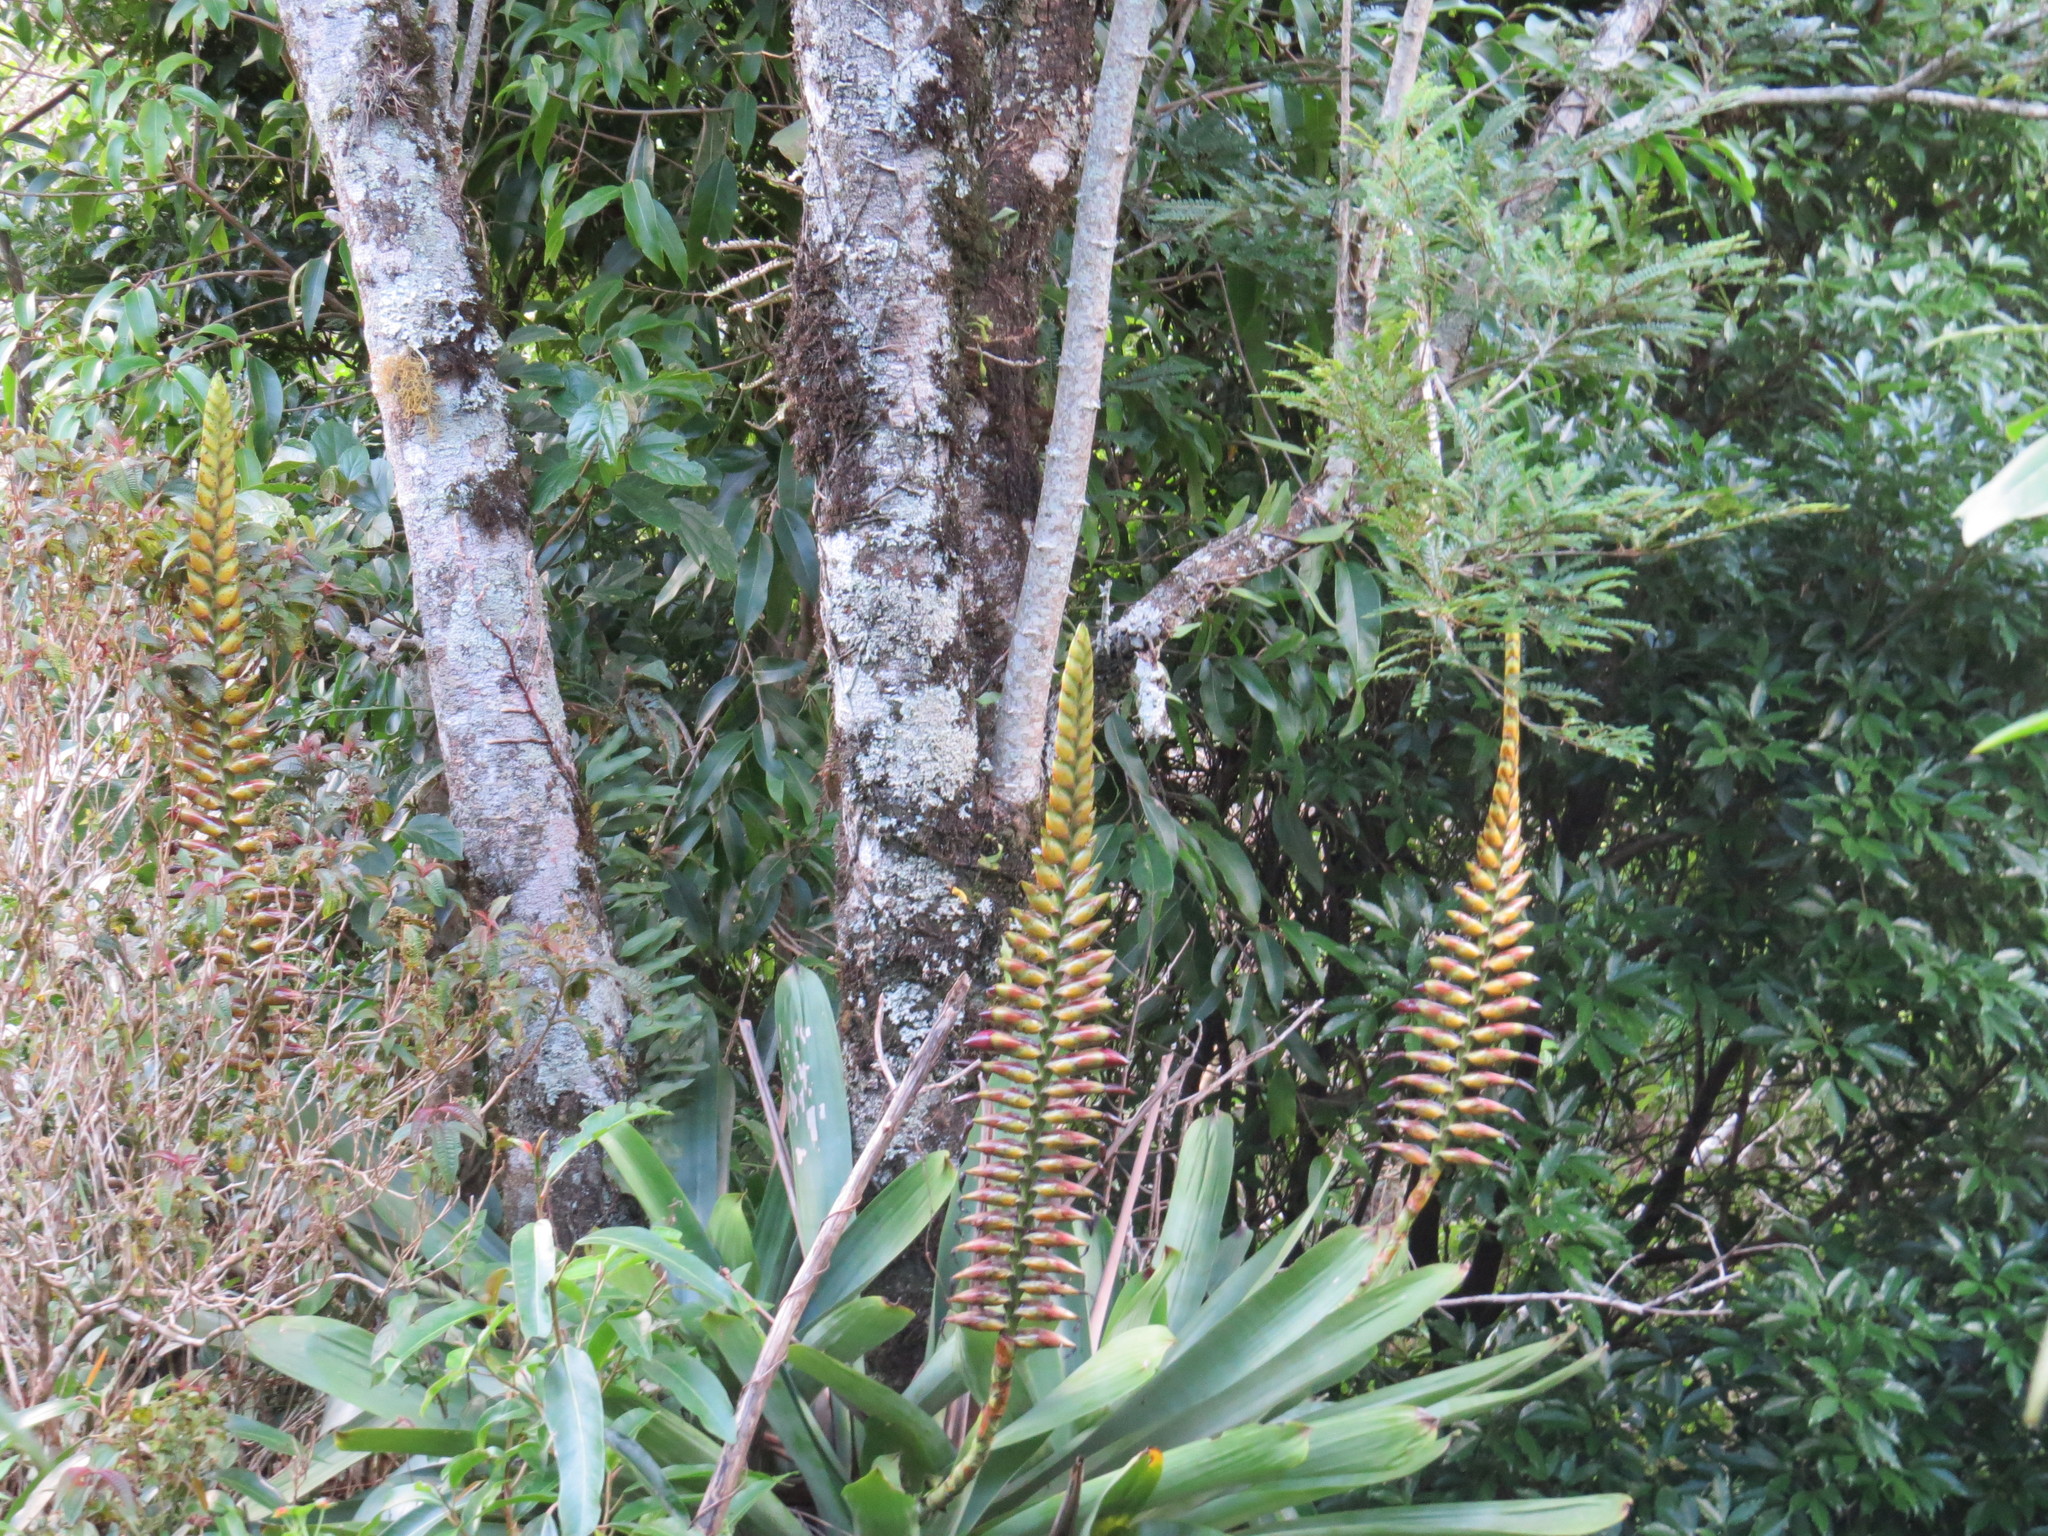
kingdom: Plantae
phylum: Tracheophyta
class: Liliopsida
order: Poales
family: Bromeliaceae
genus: Vriesea
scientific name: Vriesea bituminosa
